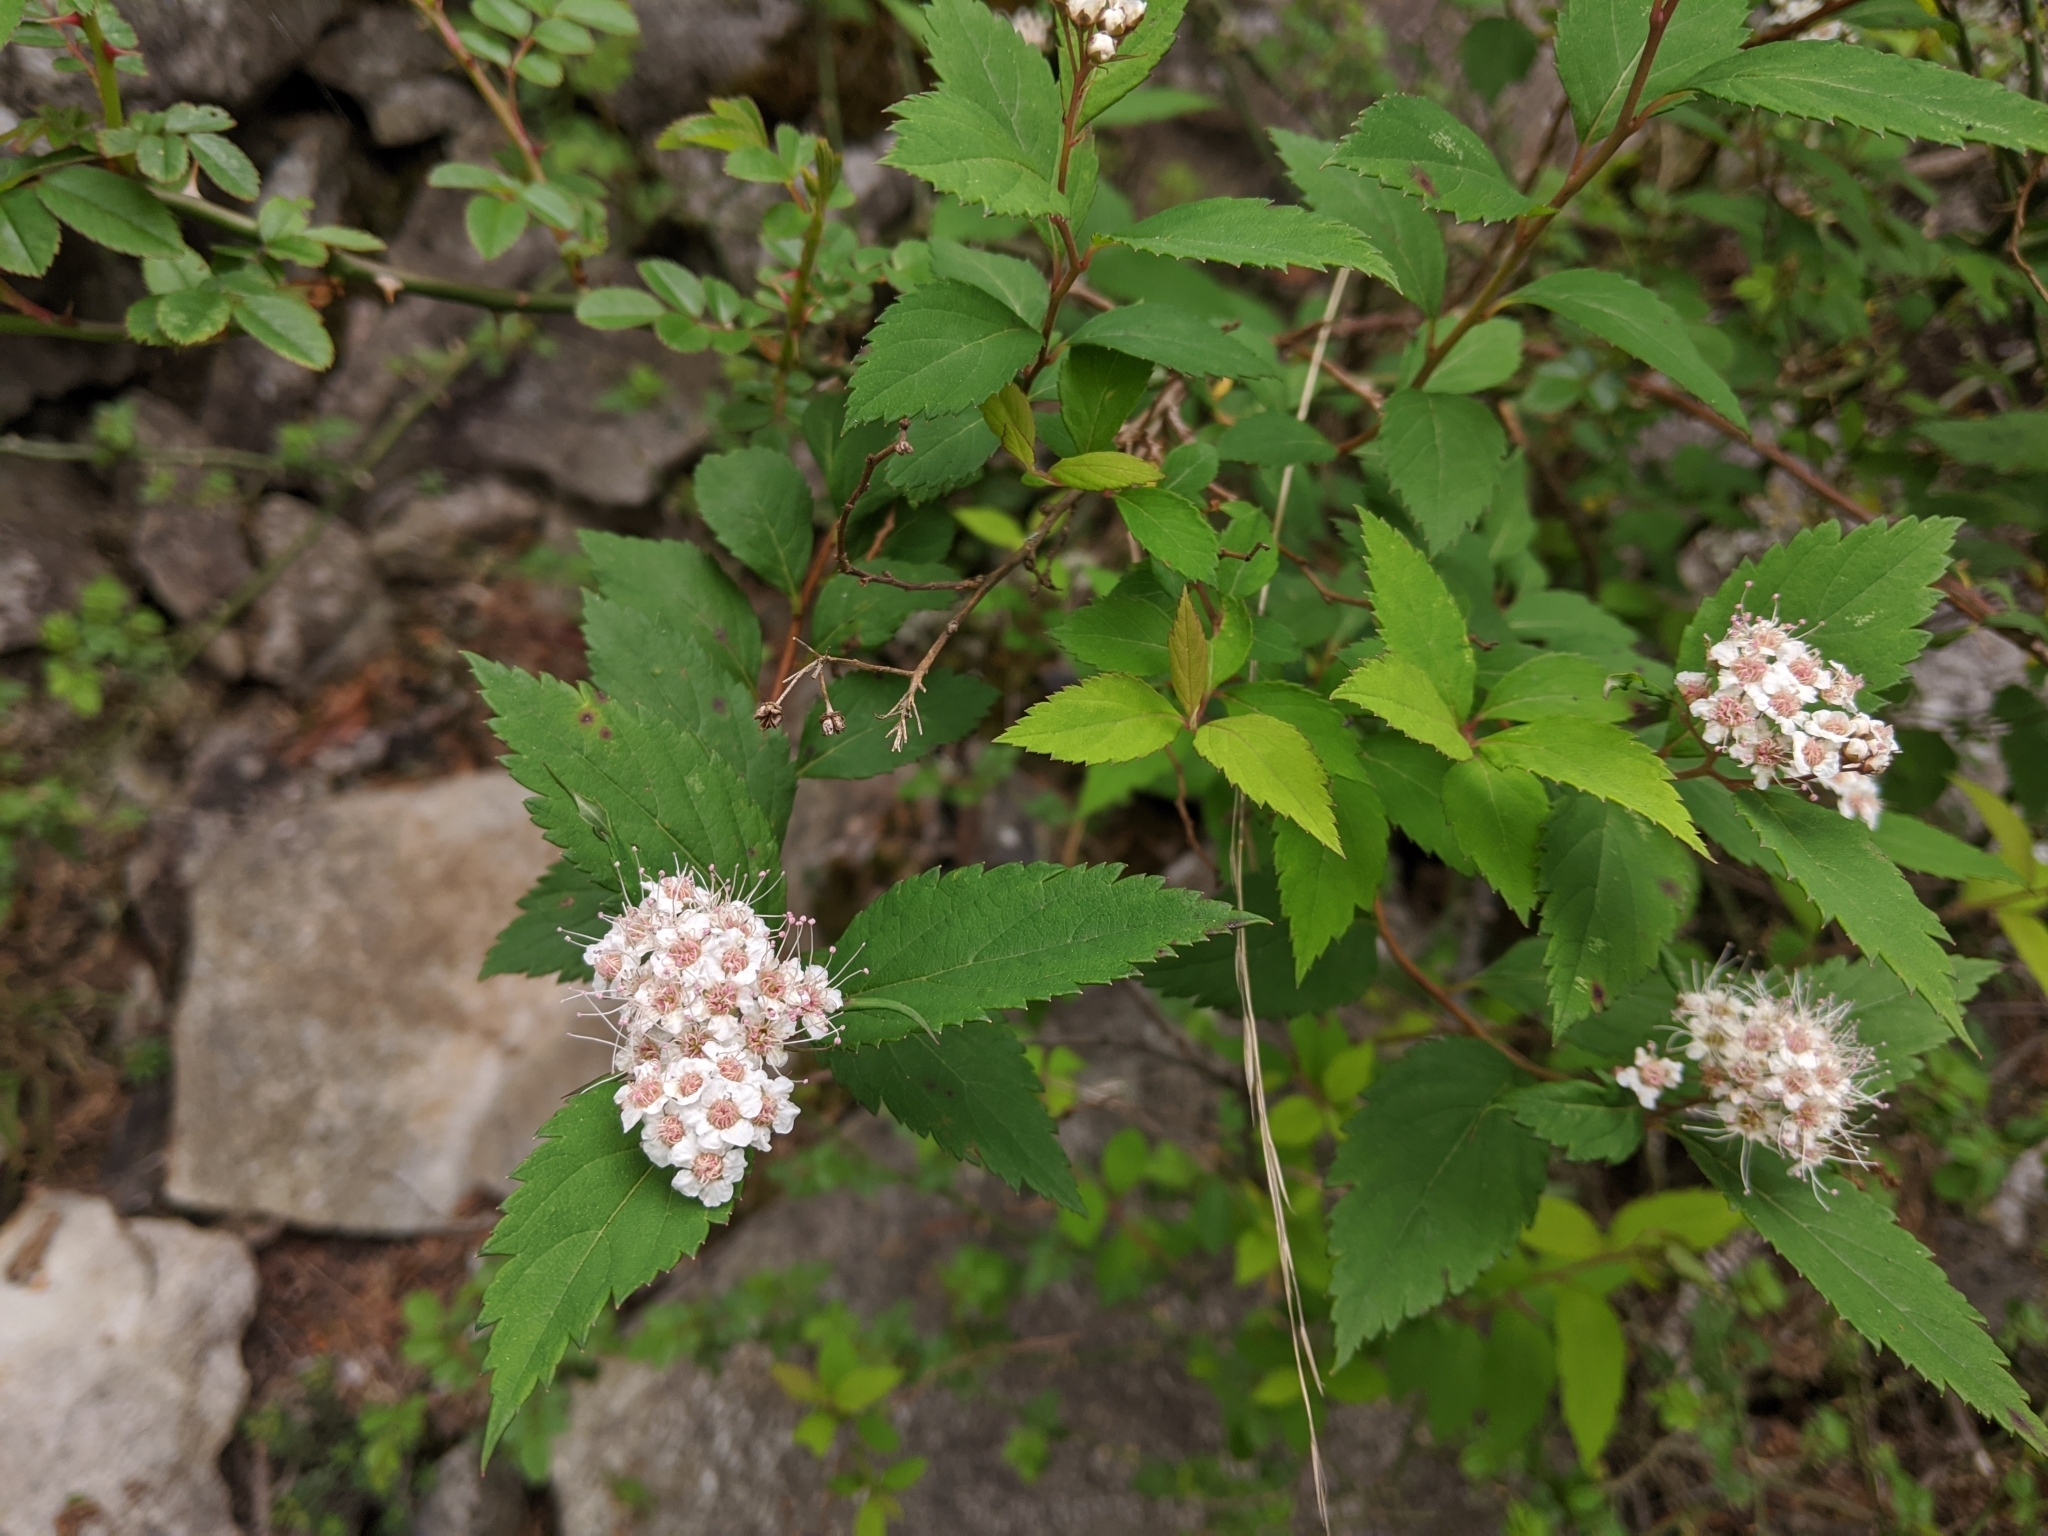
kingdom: Plantae
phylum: Tracheophyta
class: Magnoliopsida
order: Rosales
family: Rosaceae
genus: Spiraea
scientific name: Spiraea japonica
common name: Japanese spiraea
